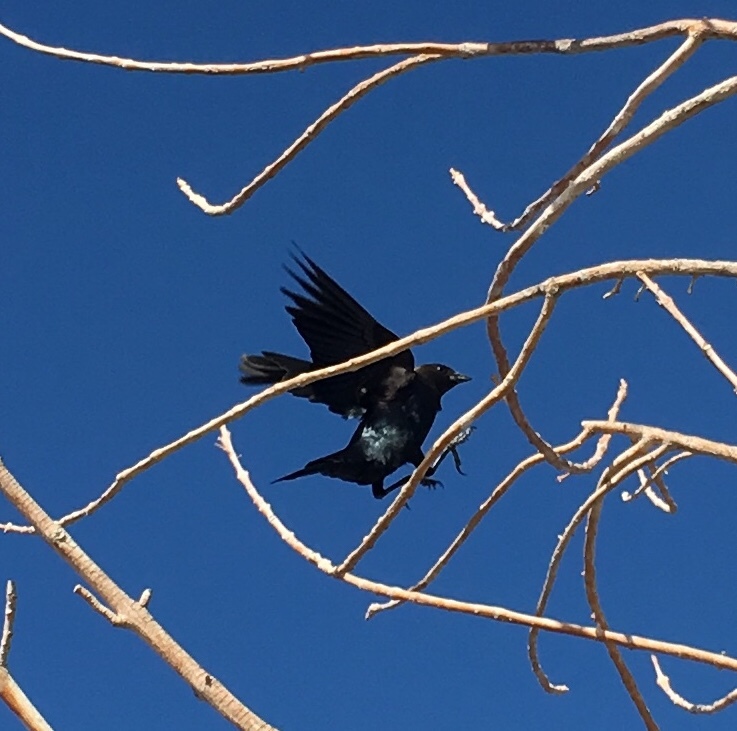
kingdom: Animalia
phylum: Chordata
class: Aves
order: Passeriformes
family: Icteridae
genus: Molothrus
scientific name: Molothrus ater
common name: Brown-headed cowbird
